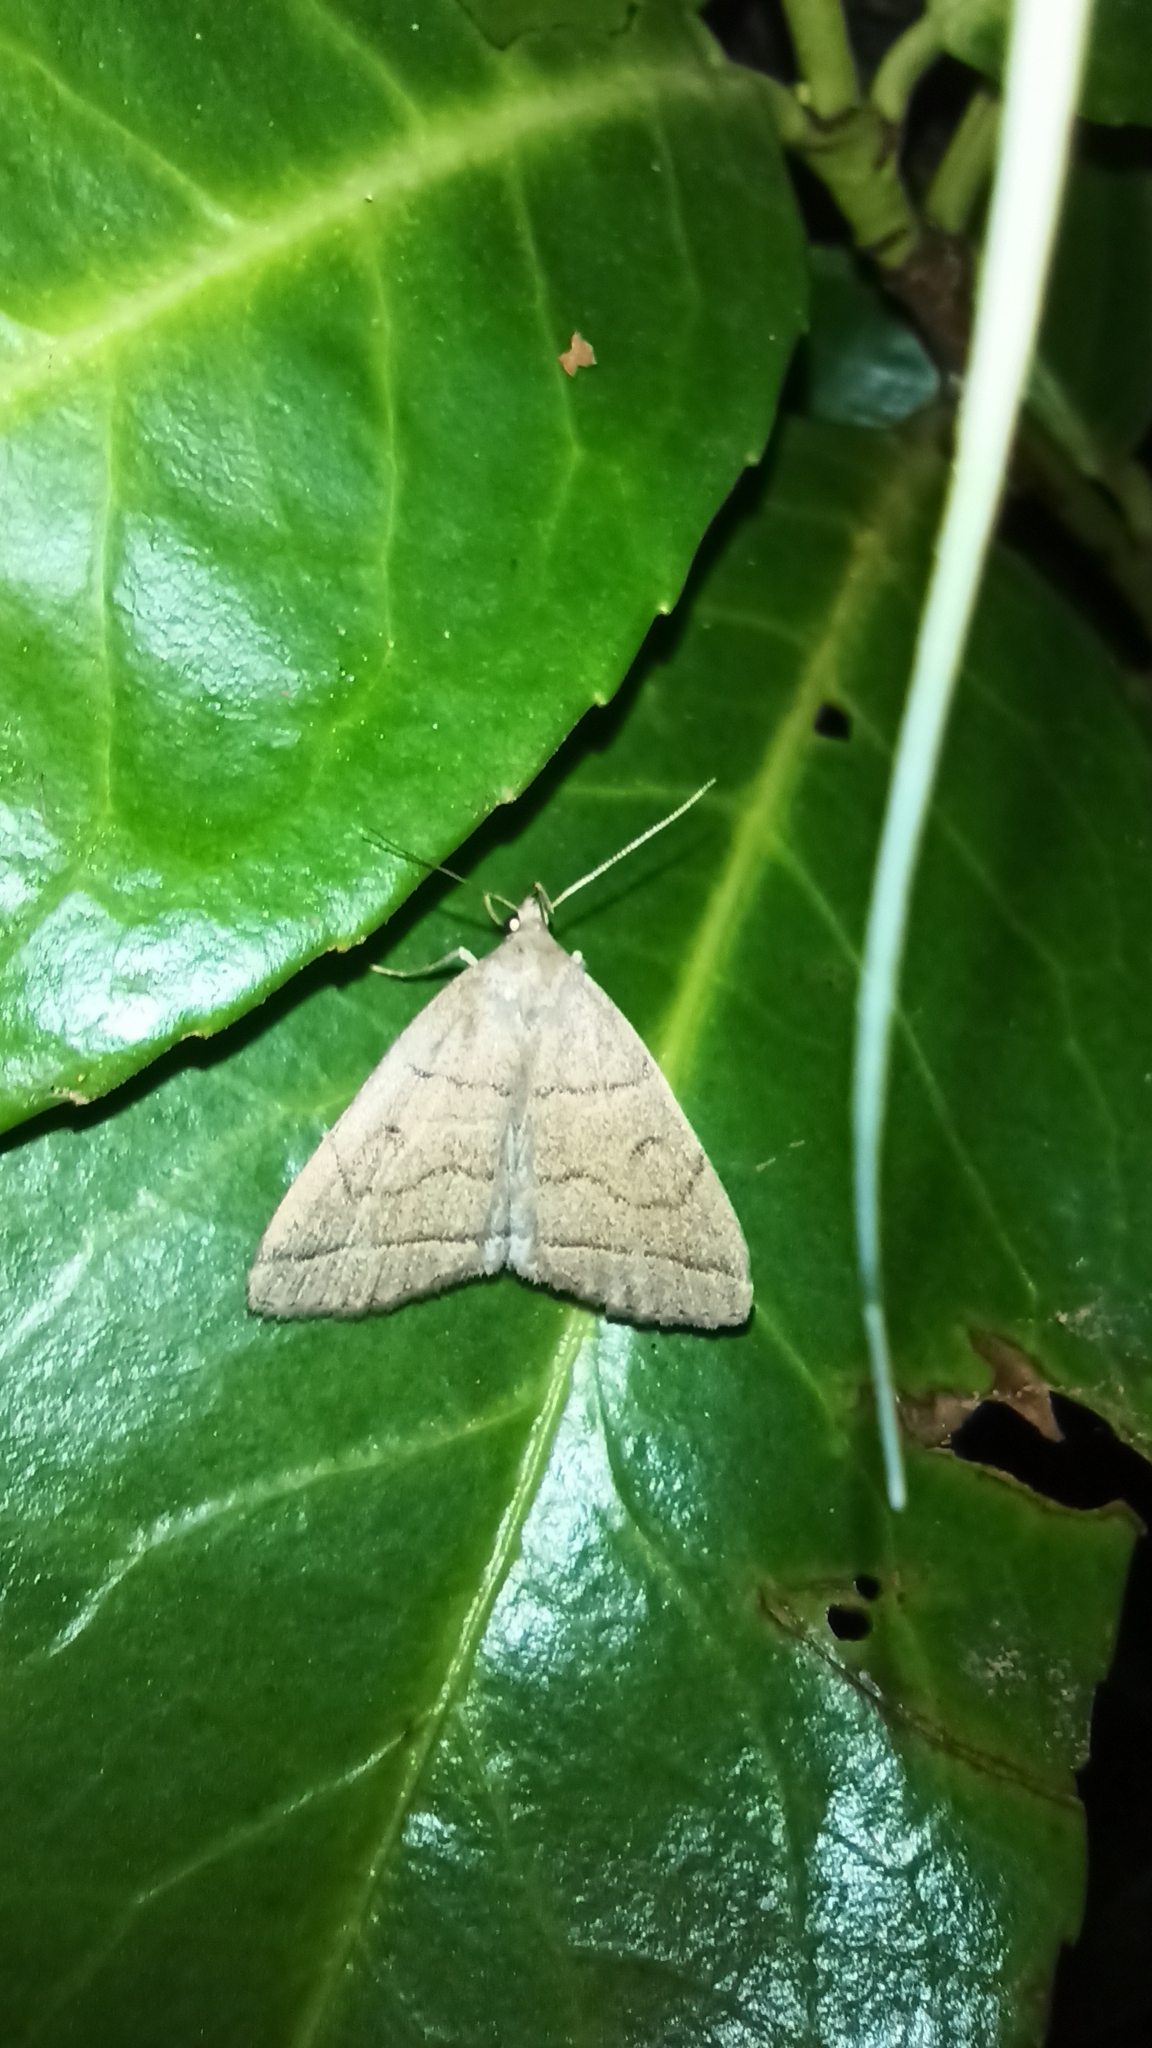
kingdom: Animalia
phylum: Arthropoda
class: Insecta
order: Lepidoptera
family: Erebidae
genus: Herminia
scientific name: Herminia tarsipennalis
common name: Fan-foot
